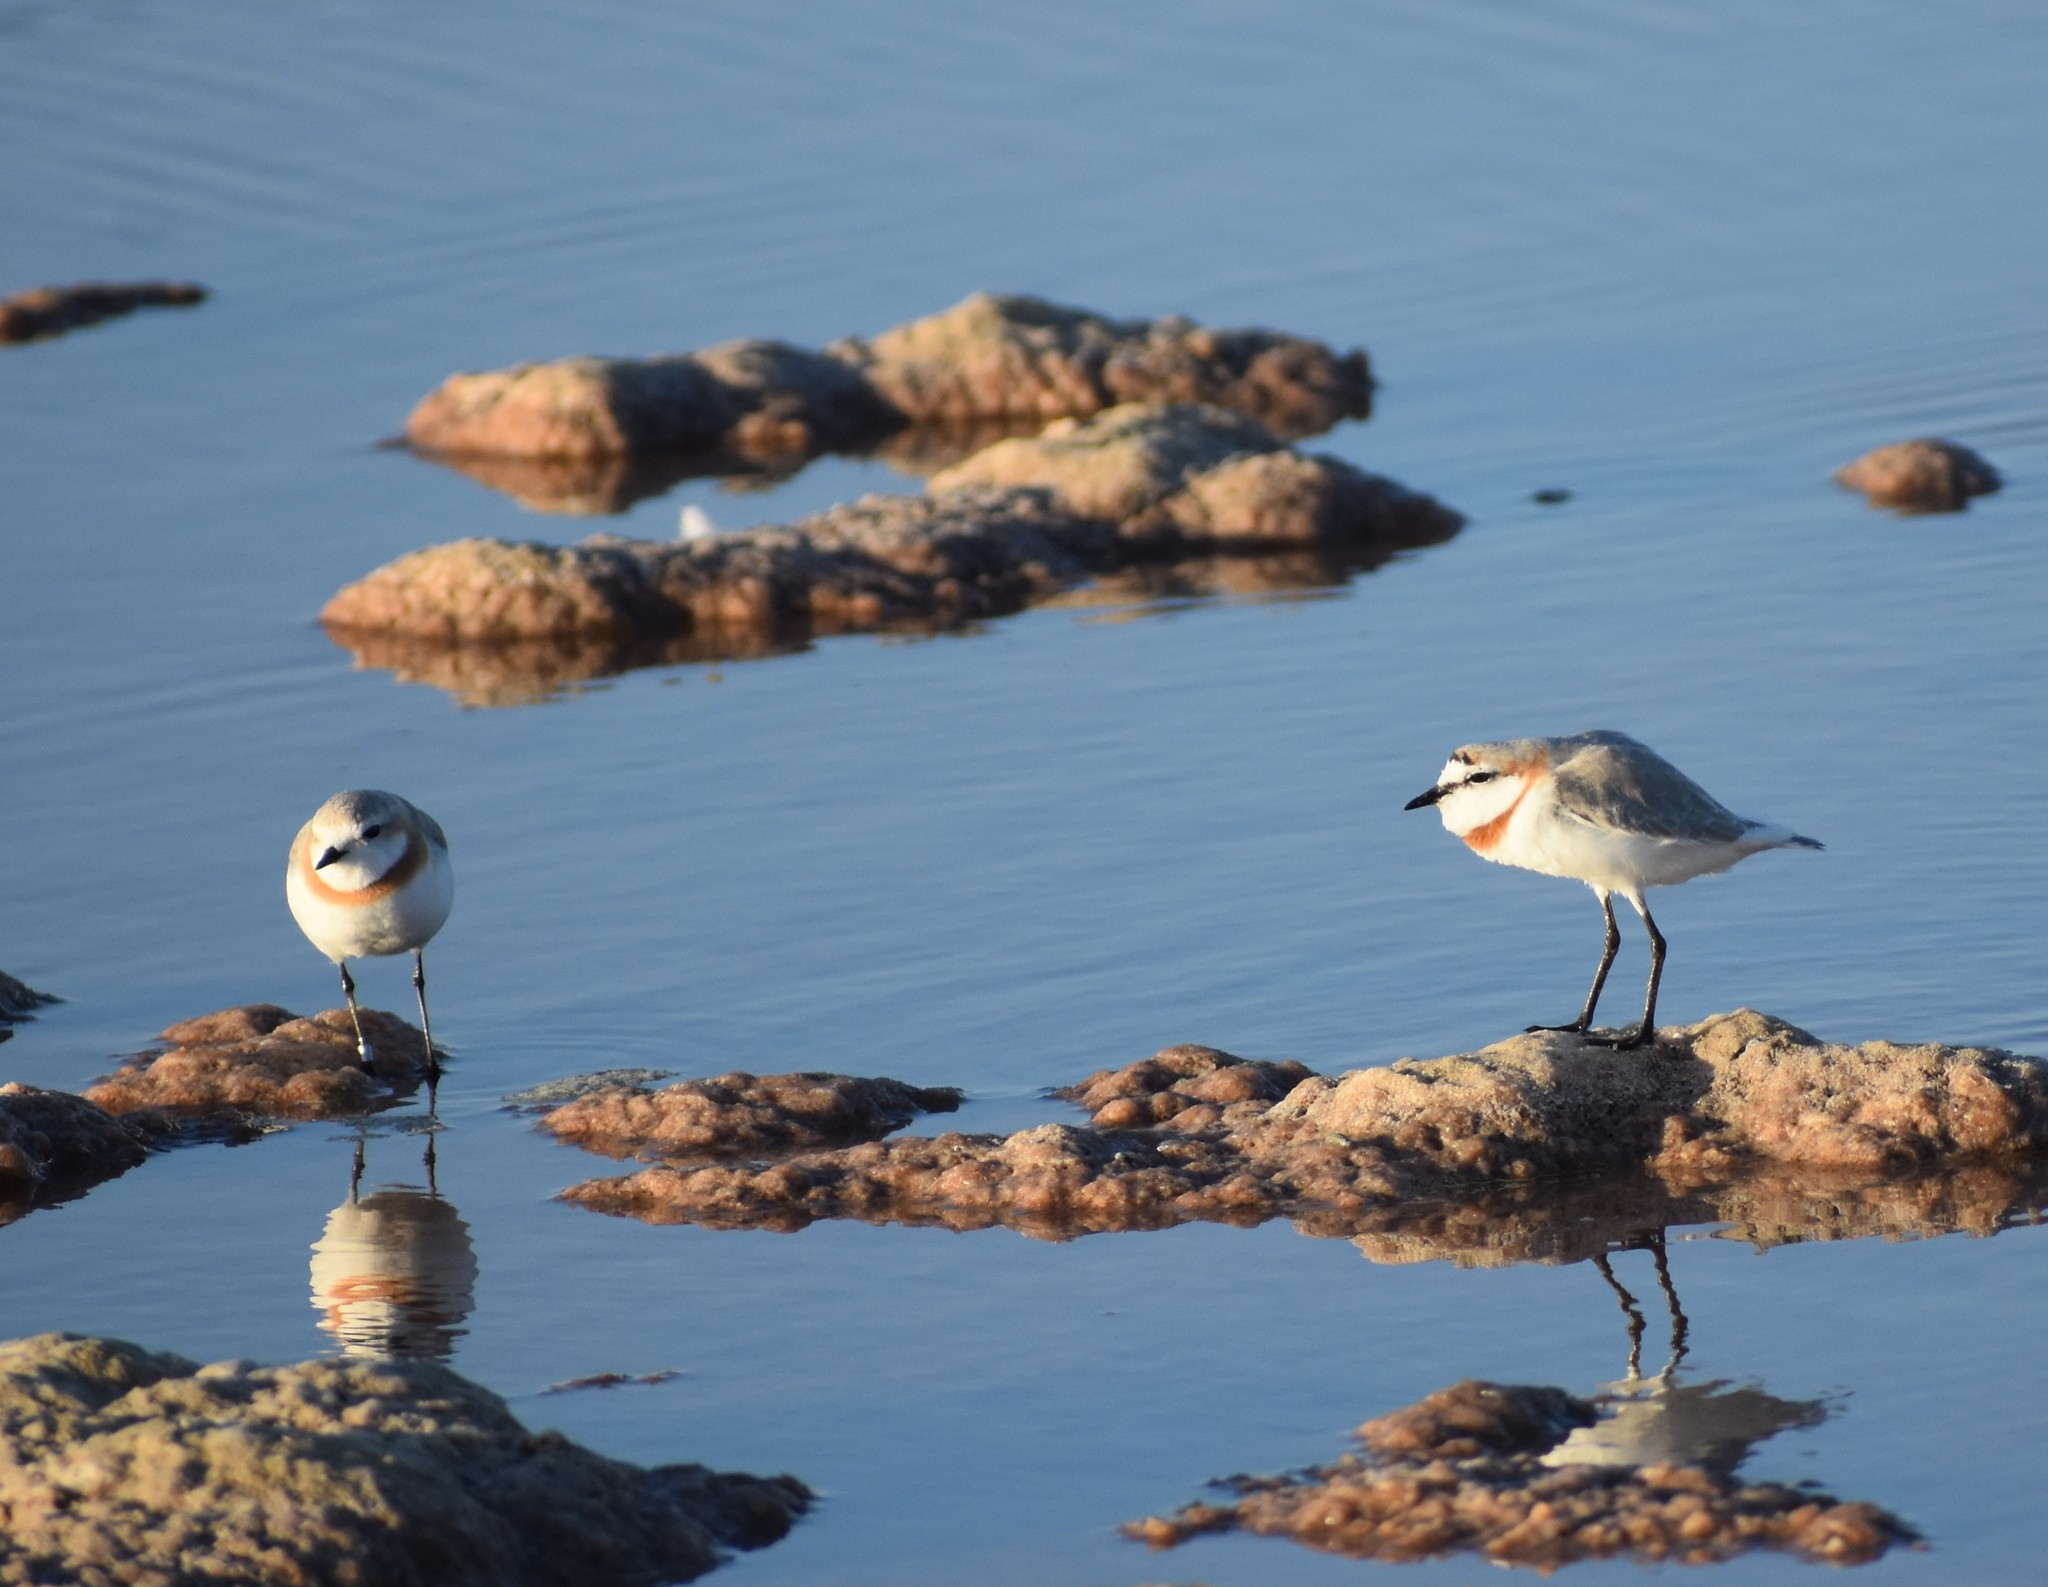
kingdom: Animalia
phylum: Chordata
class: Aves
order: Charadriiformes
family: Charadriidae
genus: Anarhynchus
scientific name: Anarhynchus
